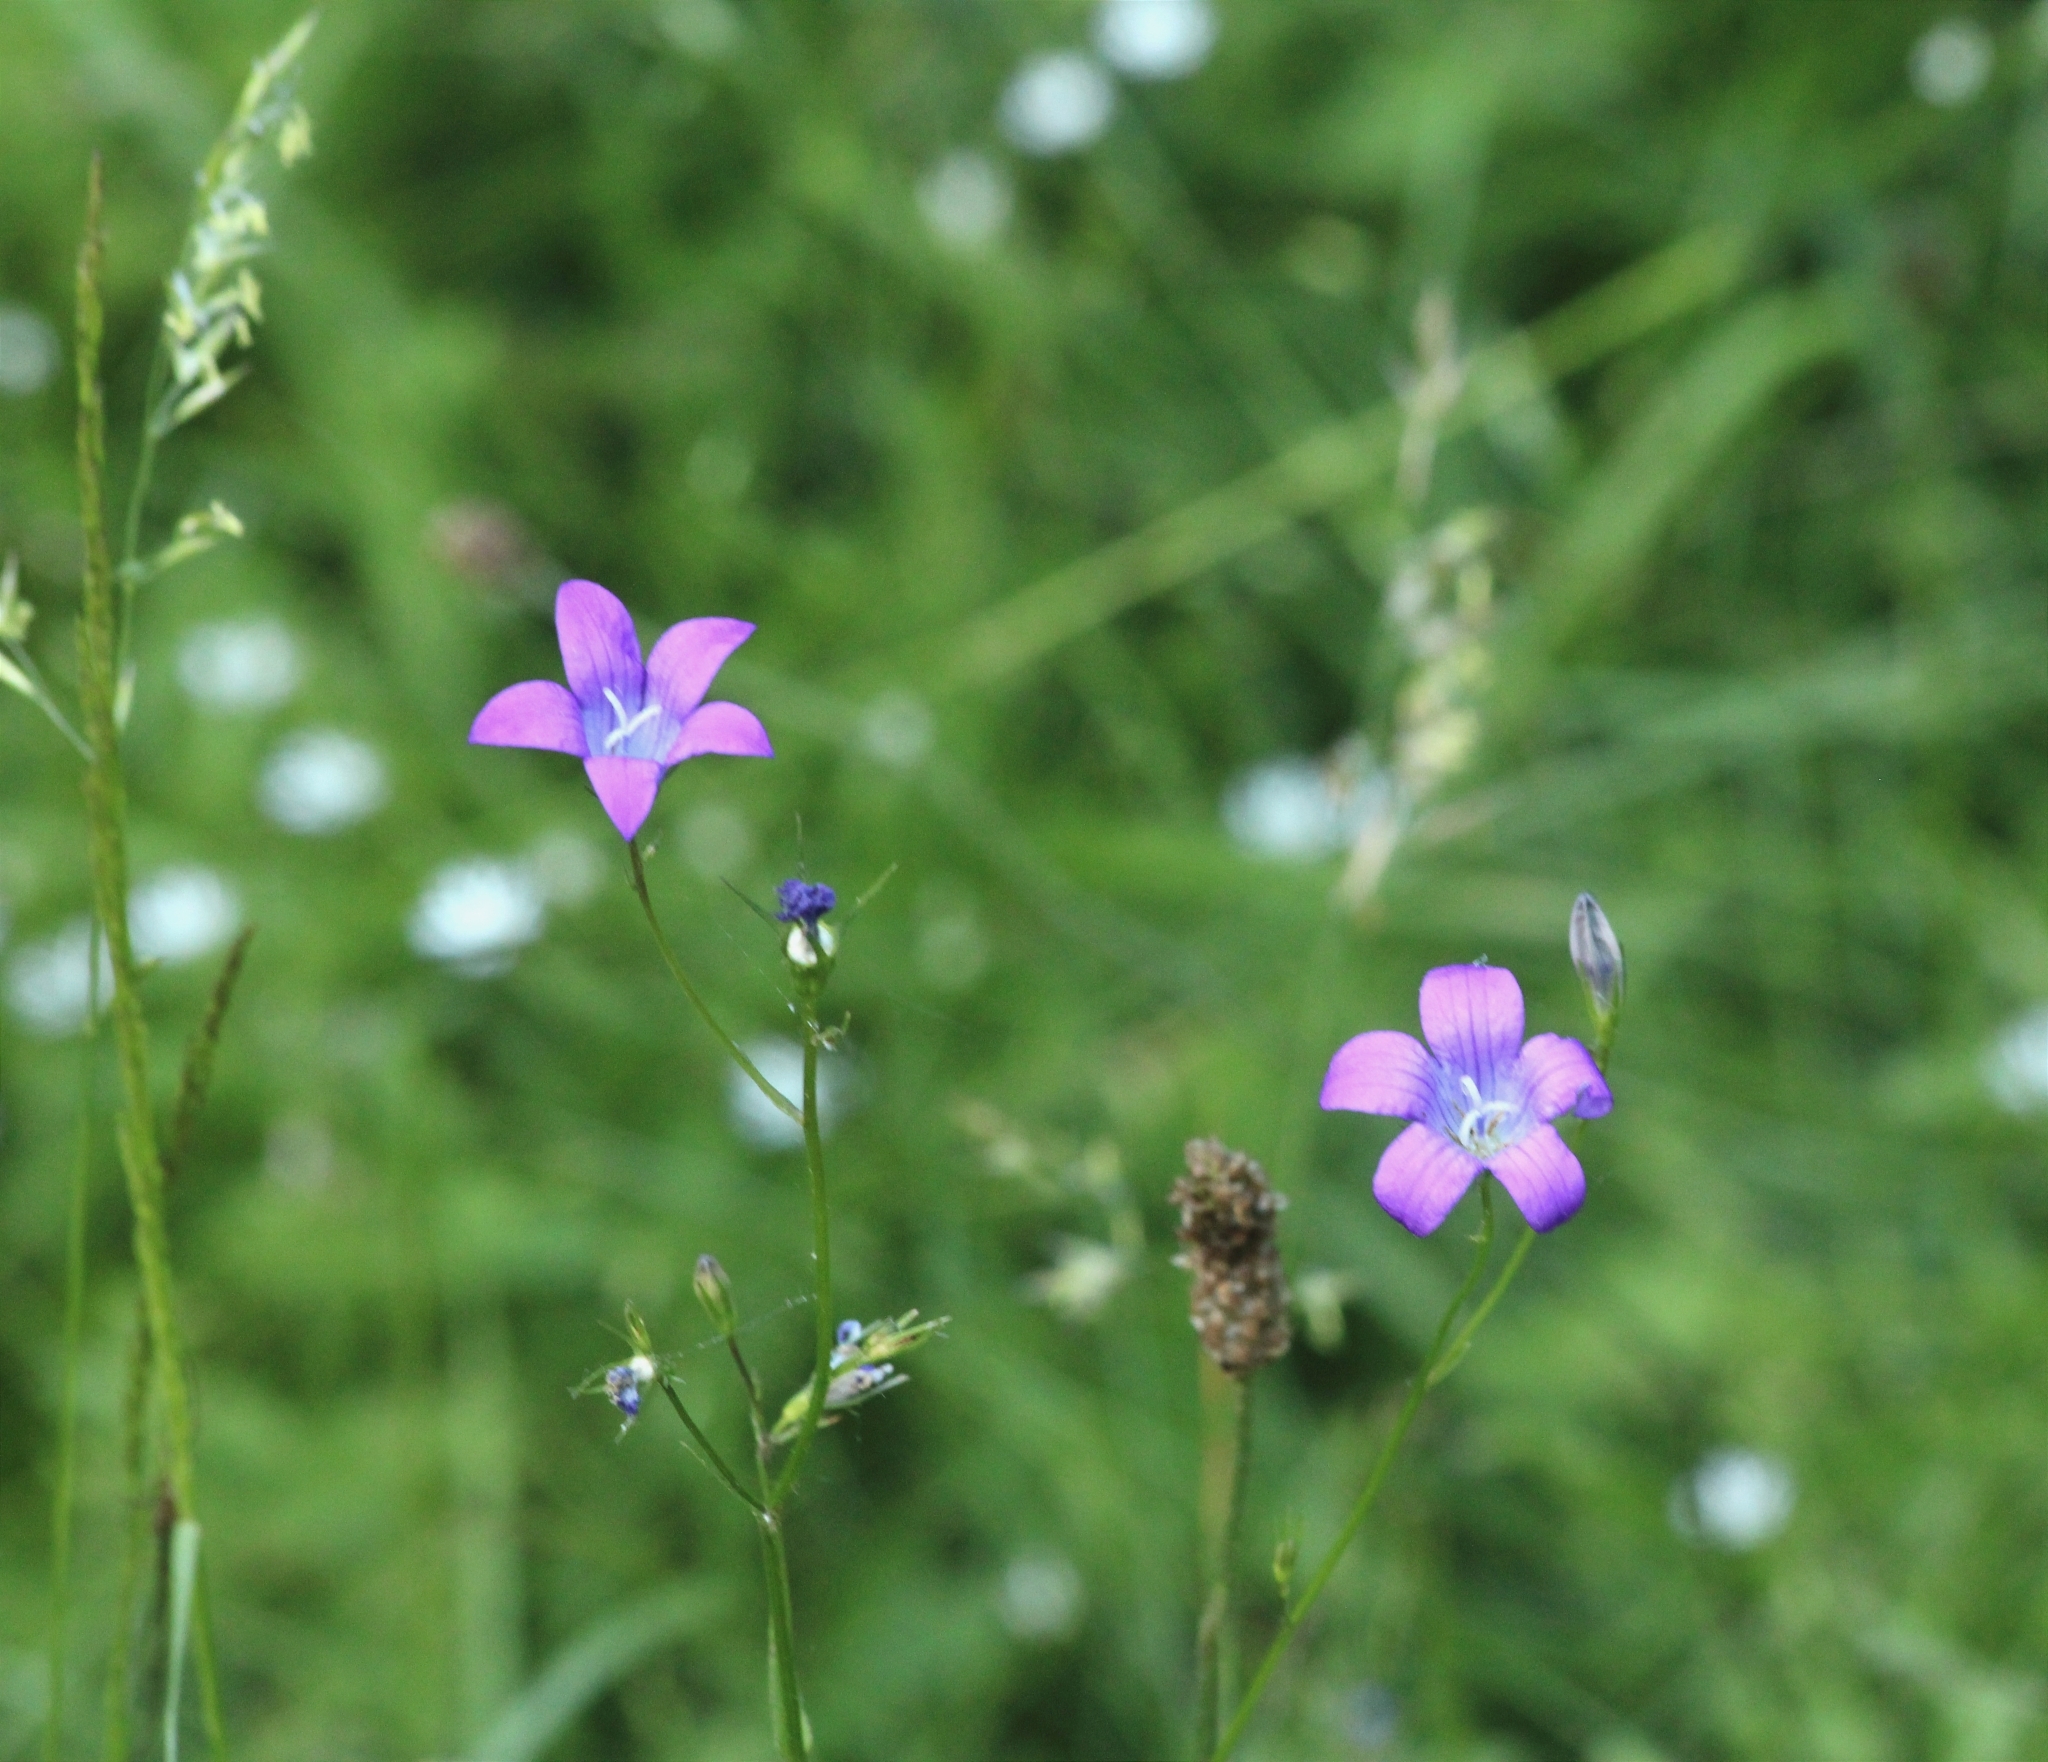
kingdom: Plantae
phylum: Tracheophyta
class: Magnoliopsida
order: Asterales
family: Campanulaceae
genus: Campanula
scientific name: Campanula patula
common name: Spreading bellflower
